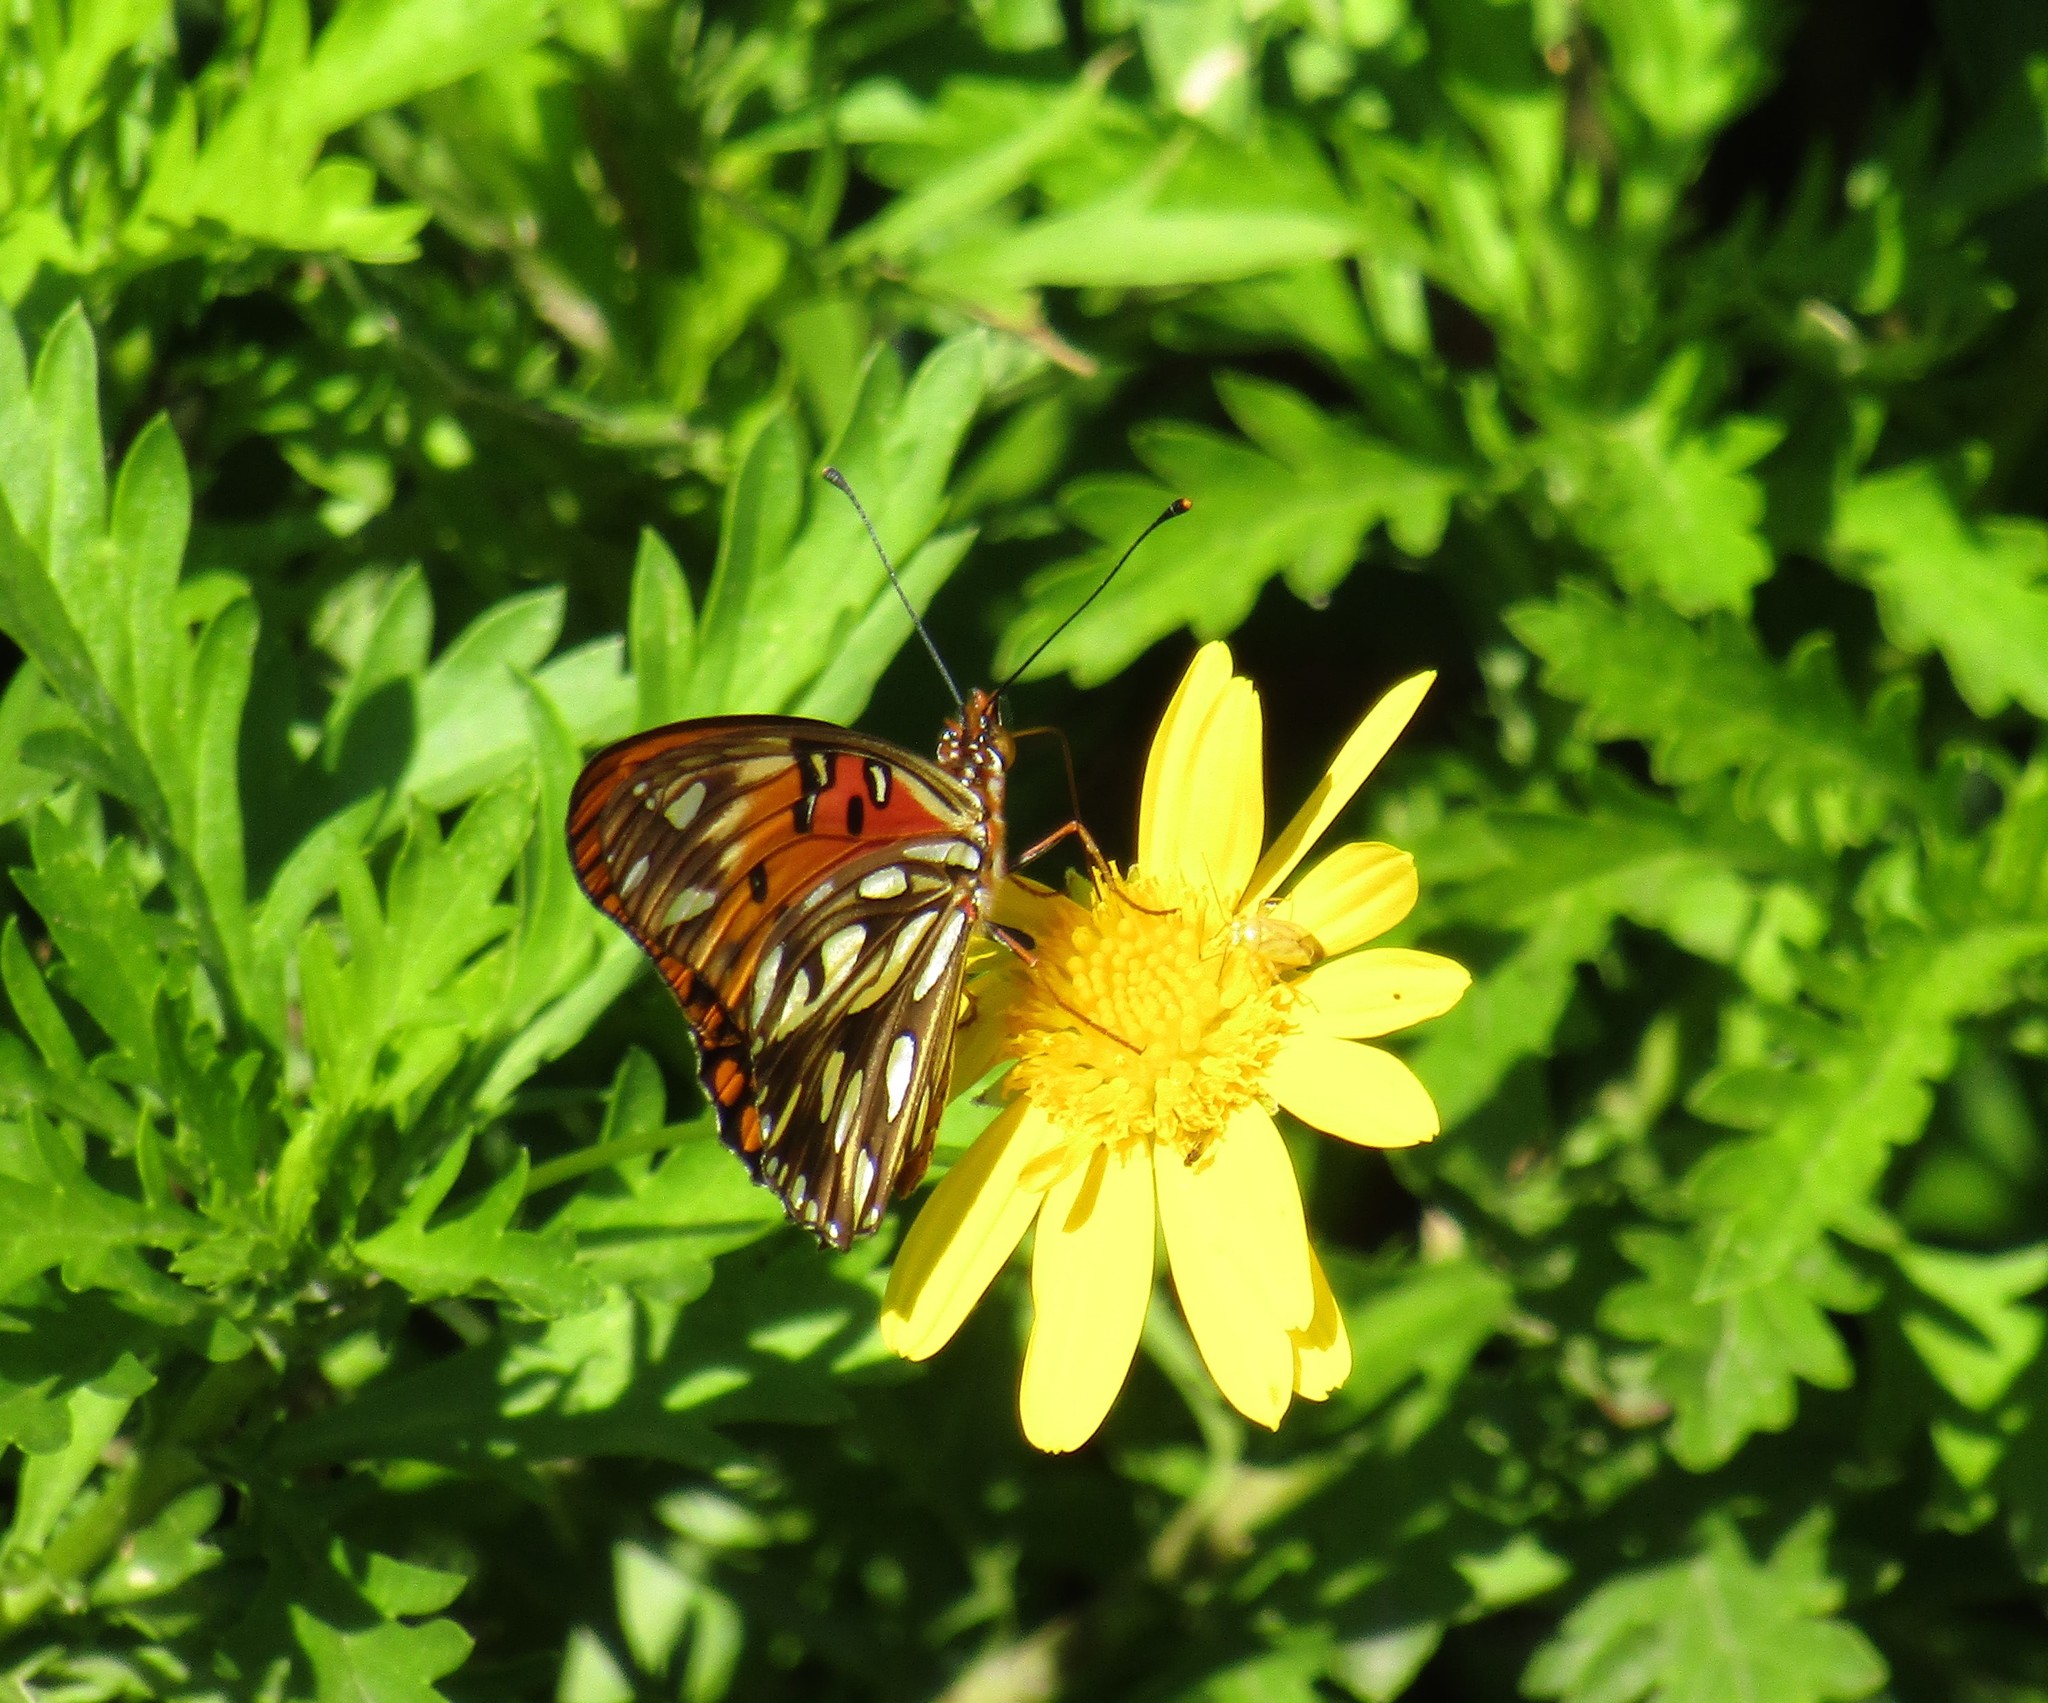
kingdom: Animalia
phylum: Arthropoda
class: Insecta
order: Lepidoptera
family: Nymphalidae
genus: Dione
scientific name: Dione vanillae
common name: Gulf fritillary
